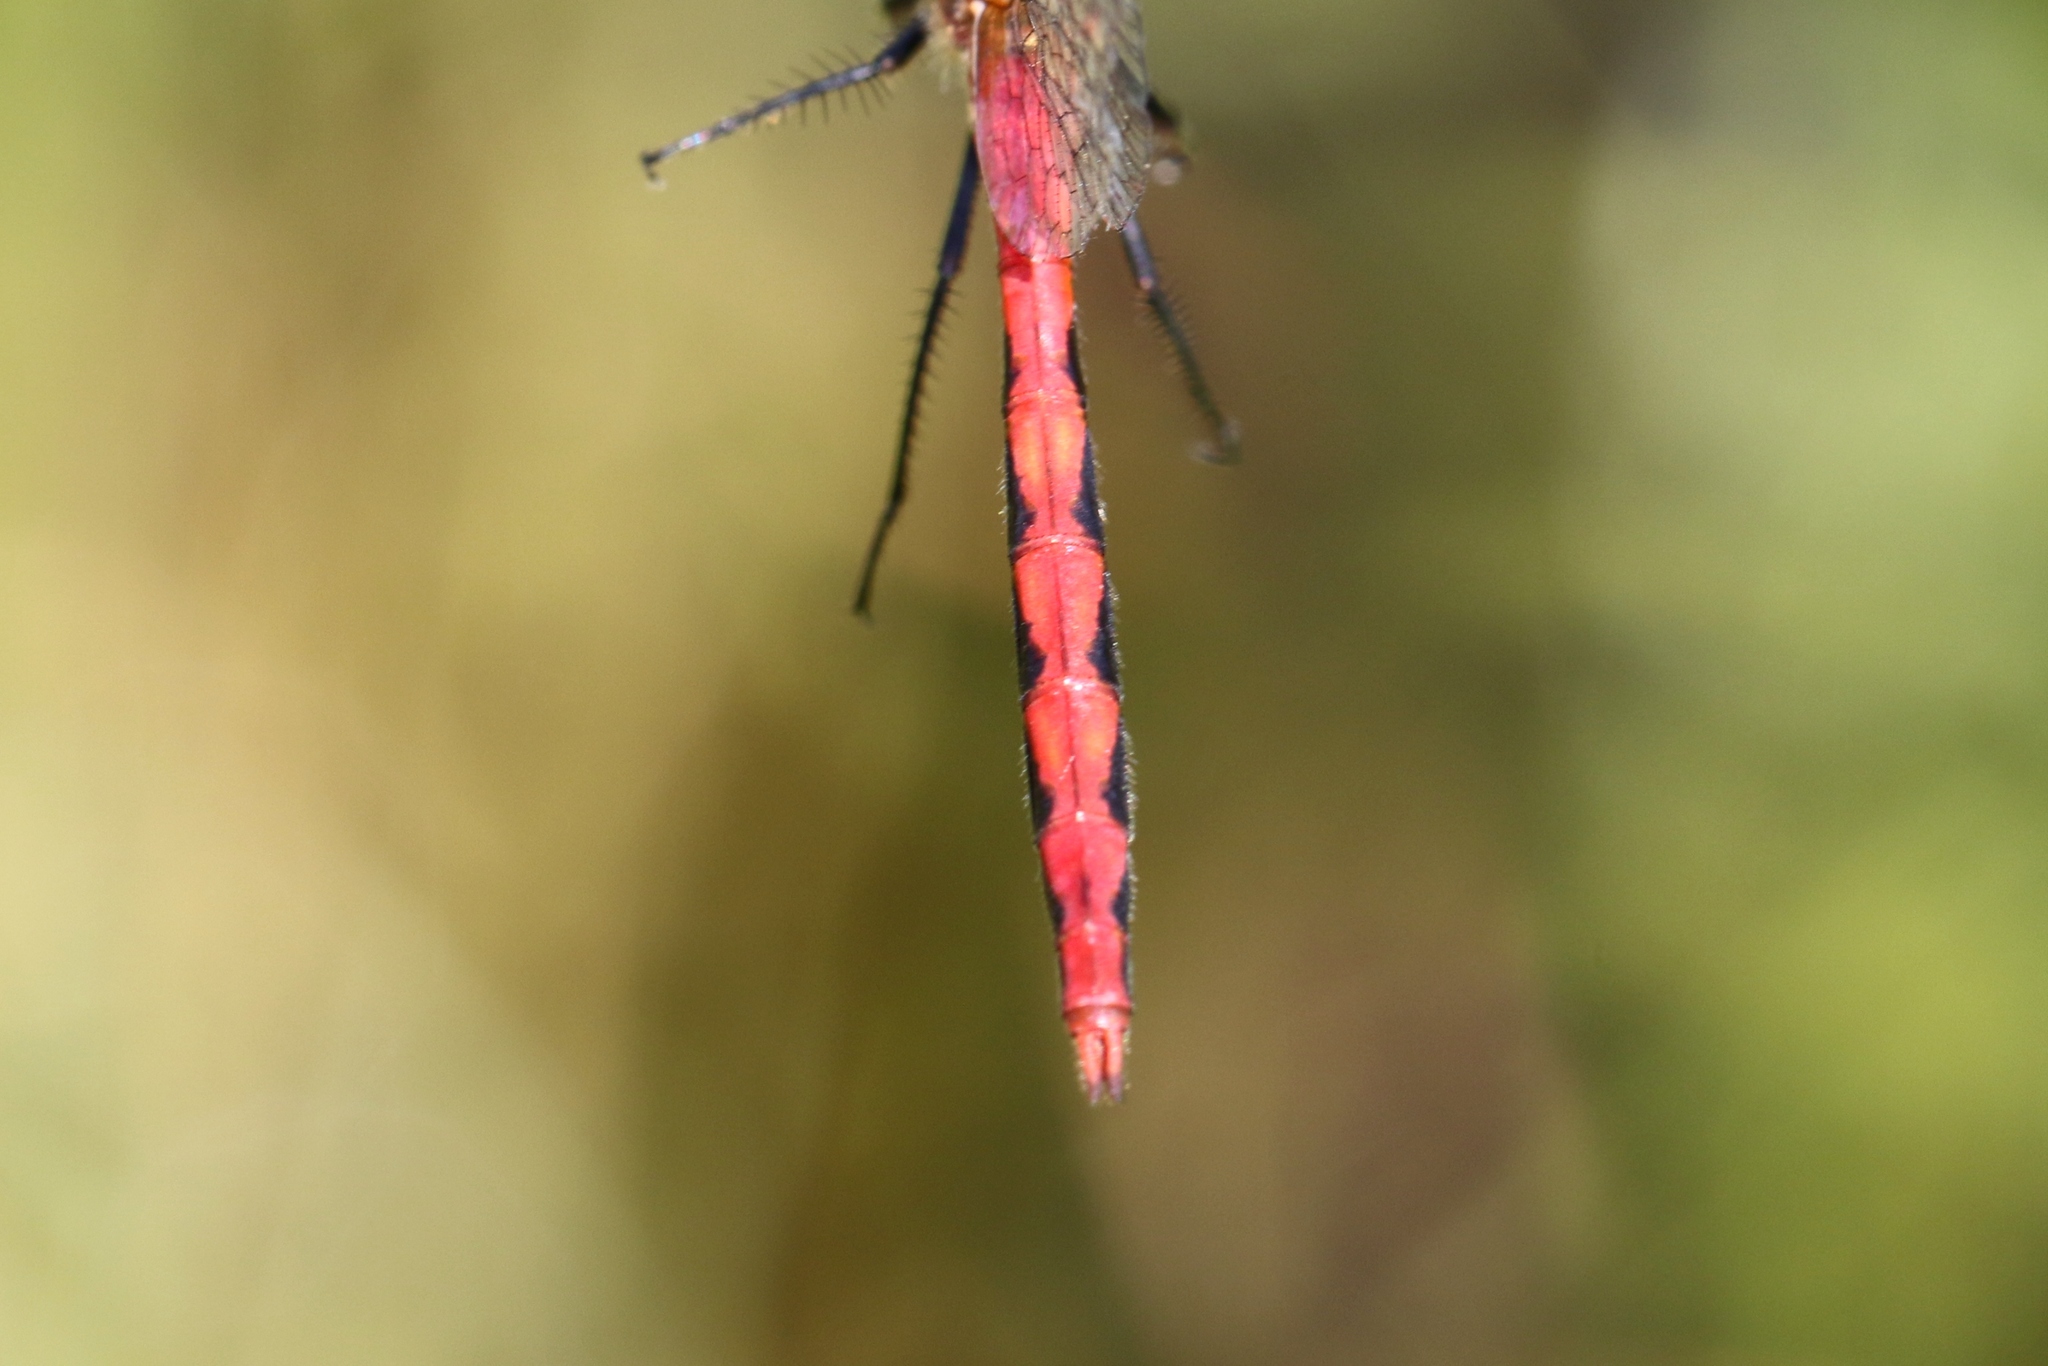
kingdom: Animalia
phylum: Arthropoda
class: Insecta
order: Odonata
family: Libellulidae
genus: Sympetrum
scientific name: Sympetrum obtrusum
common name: White-faced meadowhawk
